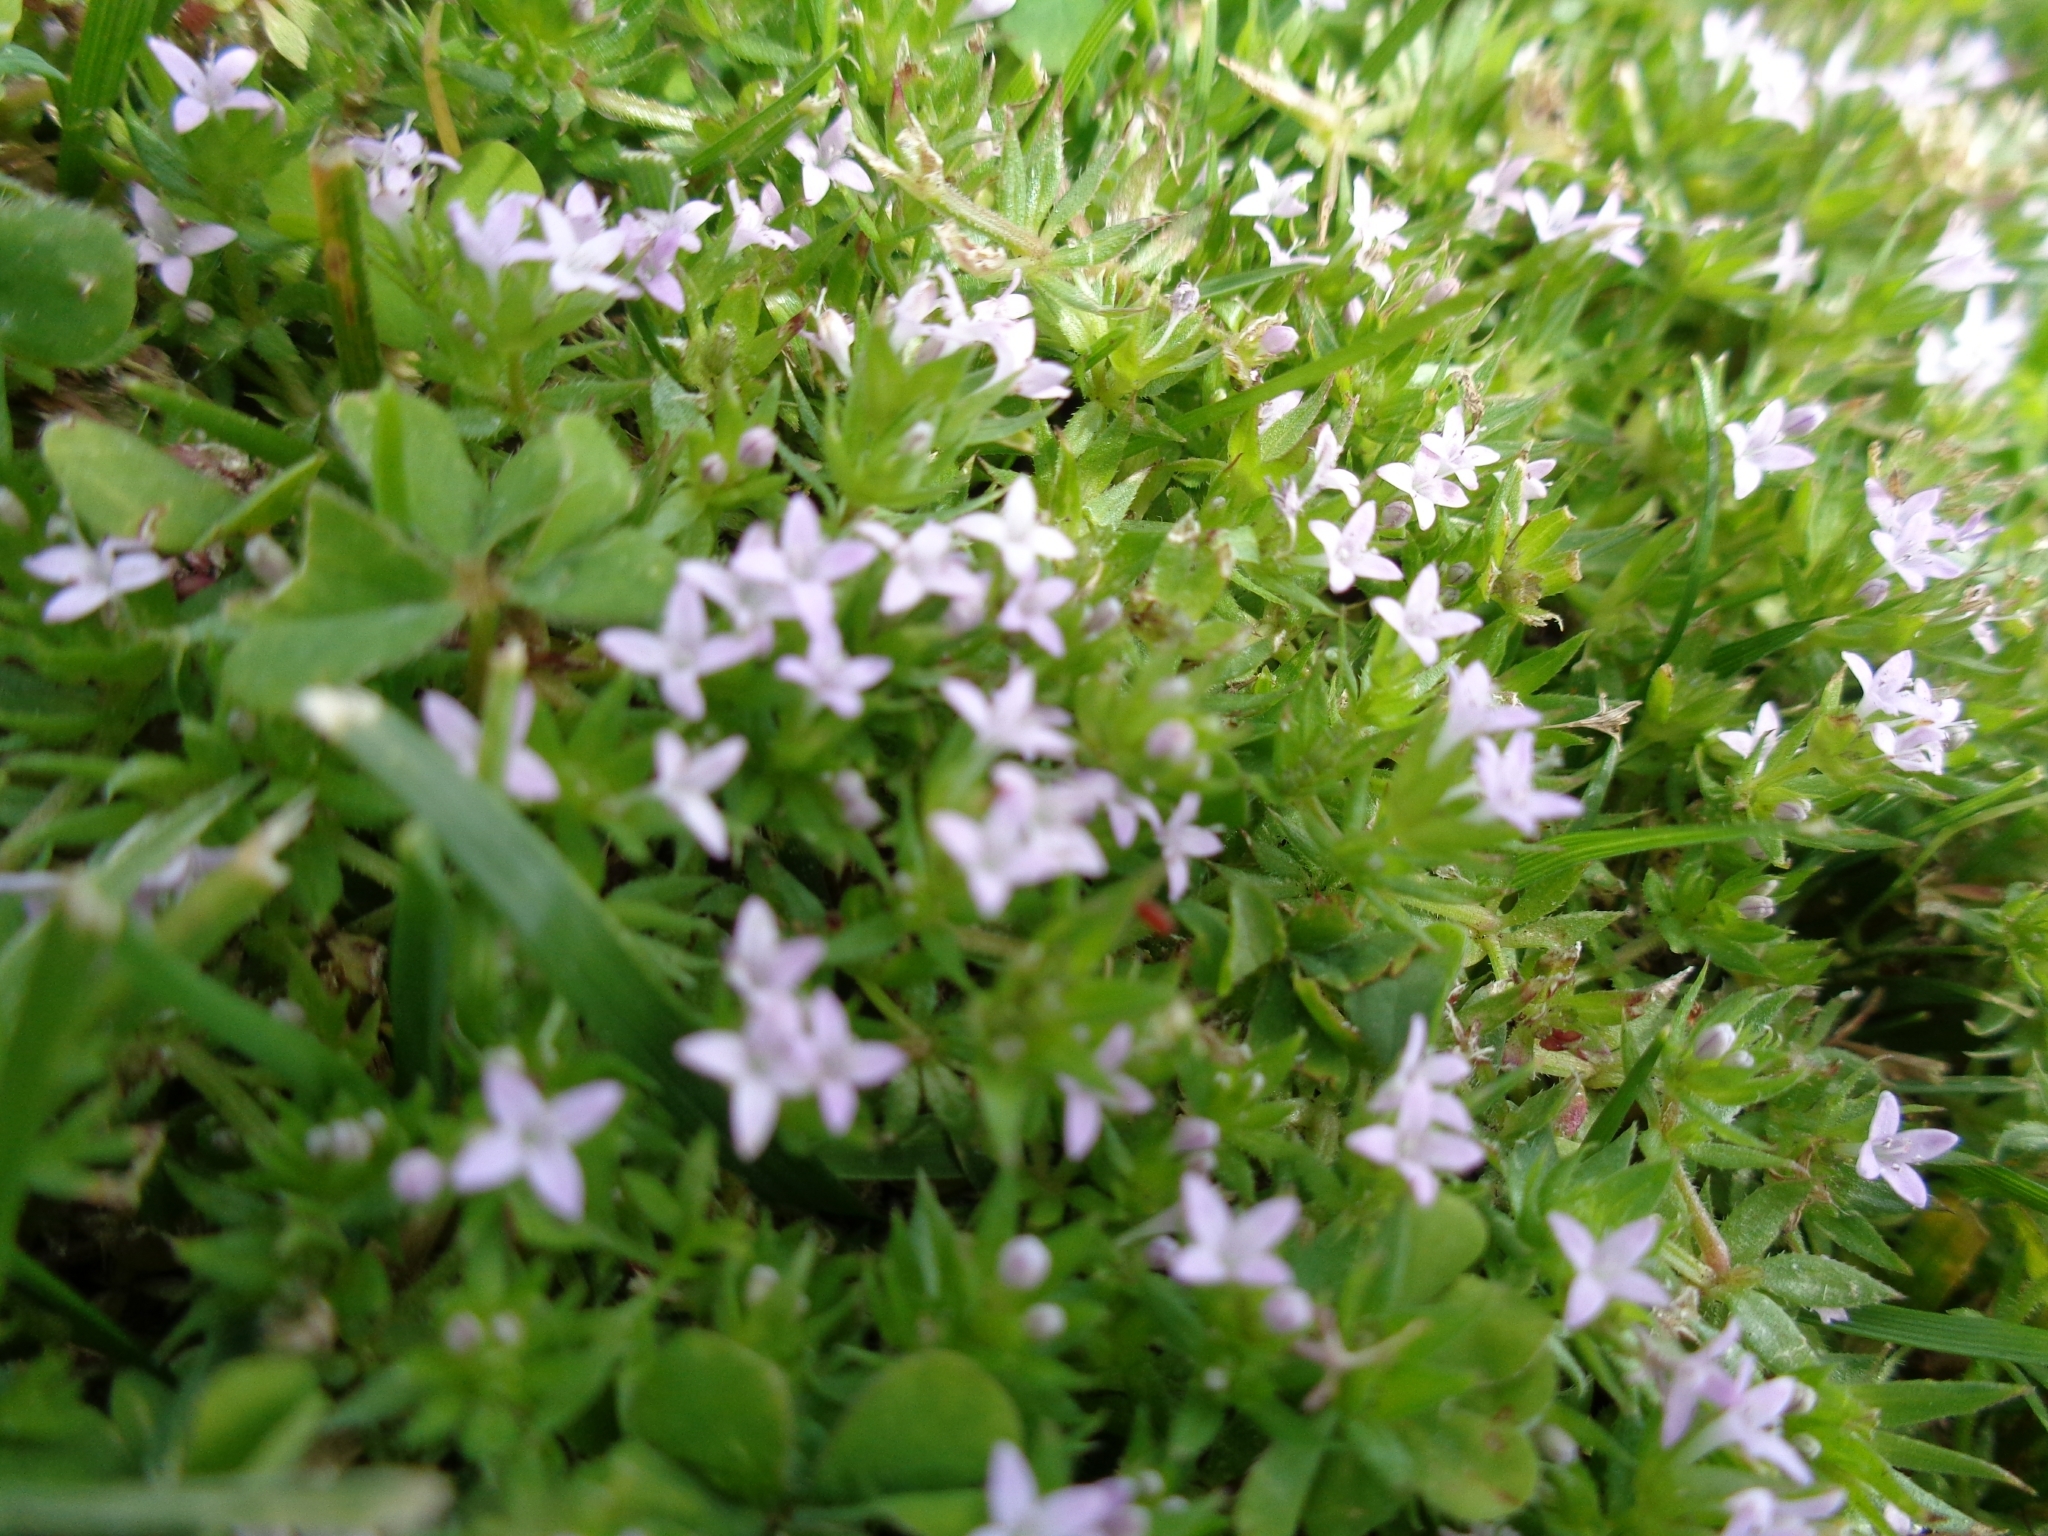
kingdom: Plantae
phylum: Tracheophyta
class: Magnoliopsida
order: Gentianales
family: Rubiaceae
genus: Sherardia
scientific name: Sherardia arvensis
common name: Field madder
